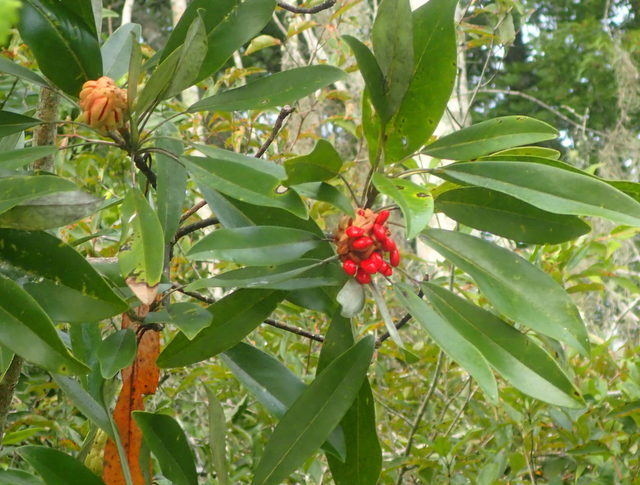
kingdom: Plantae
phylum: Tracheophyta
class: Magnoliopsida
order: Magnoliales
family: Magnoliaceae
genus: Magnolia
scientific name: Magnolia virginiana
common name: Swamp bay
